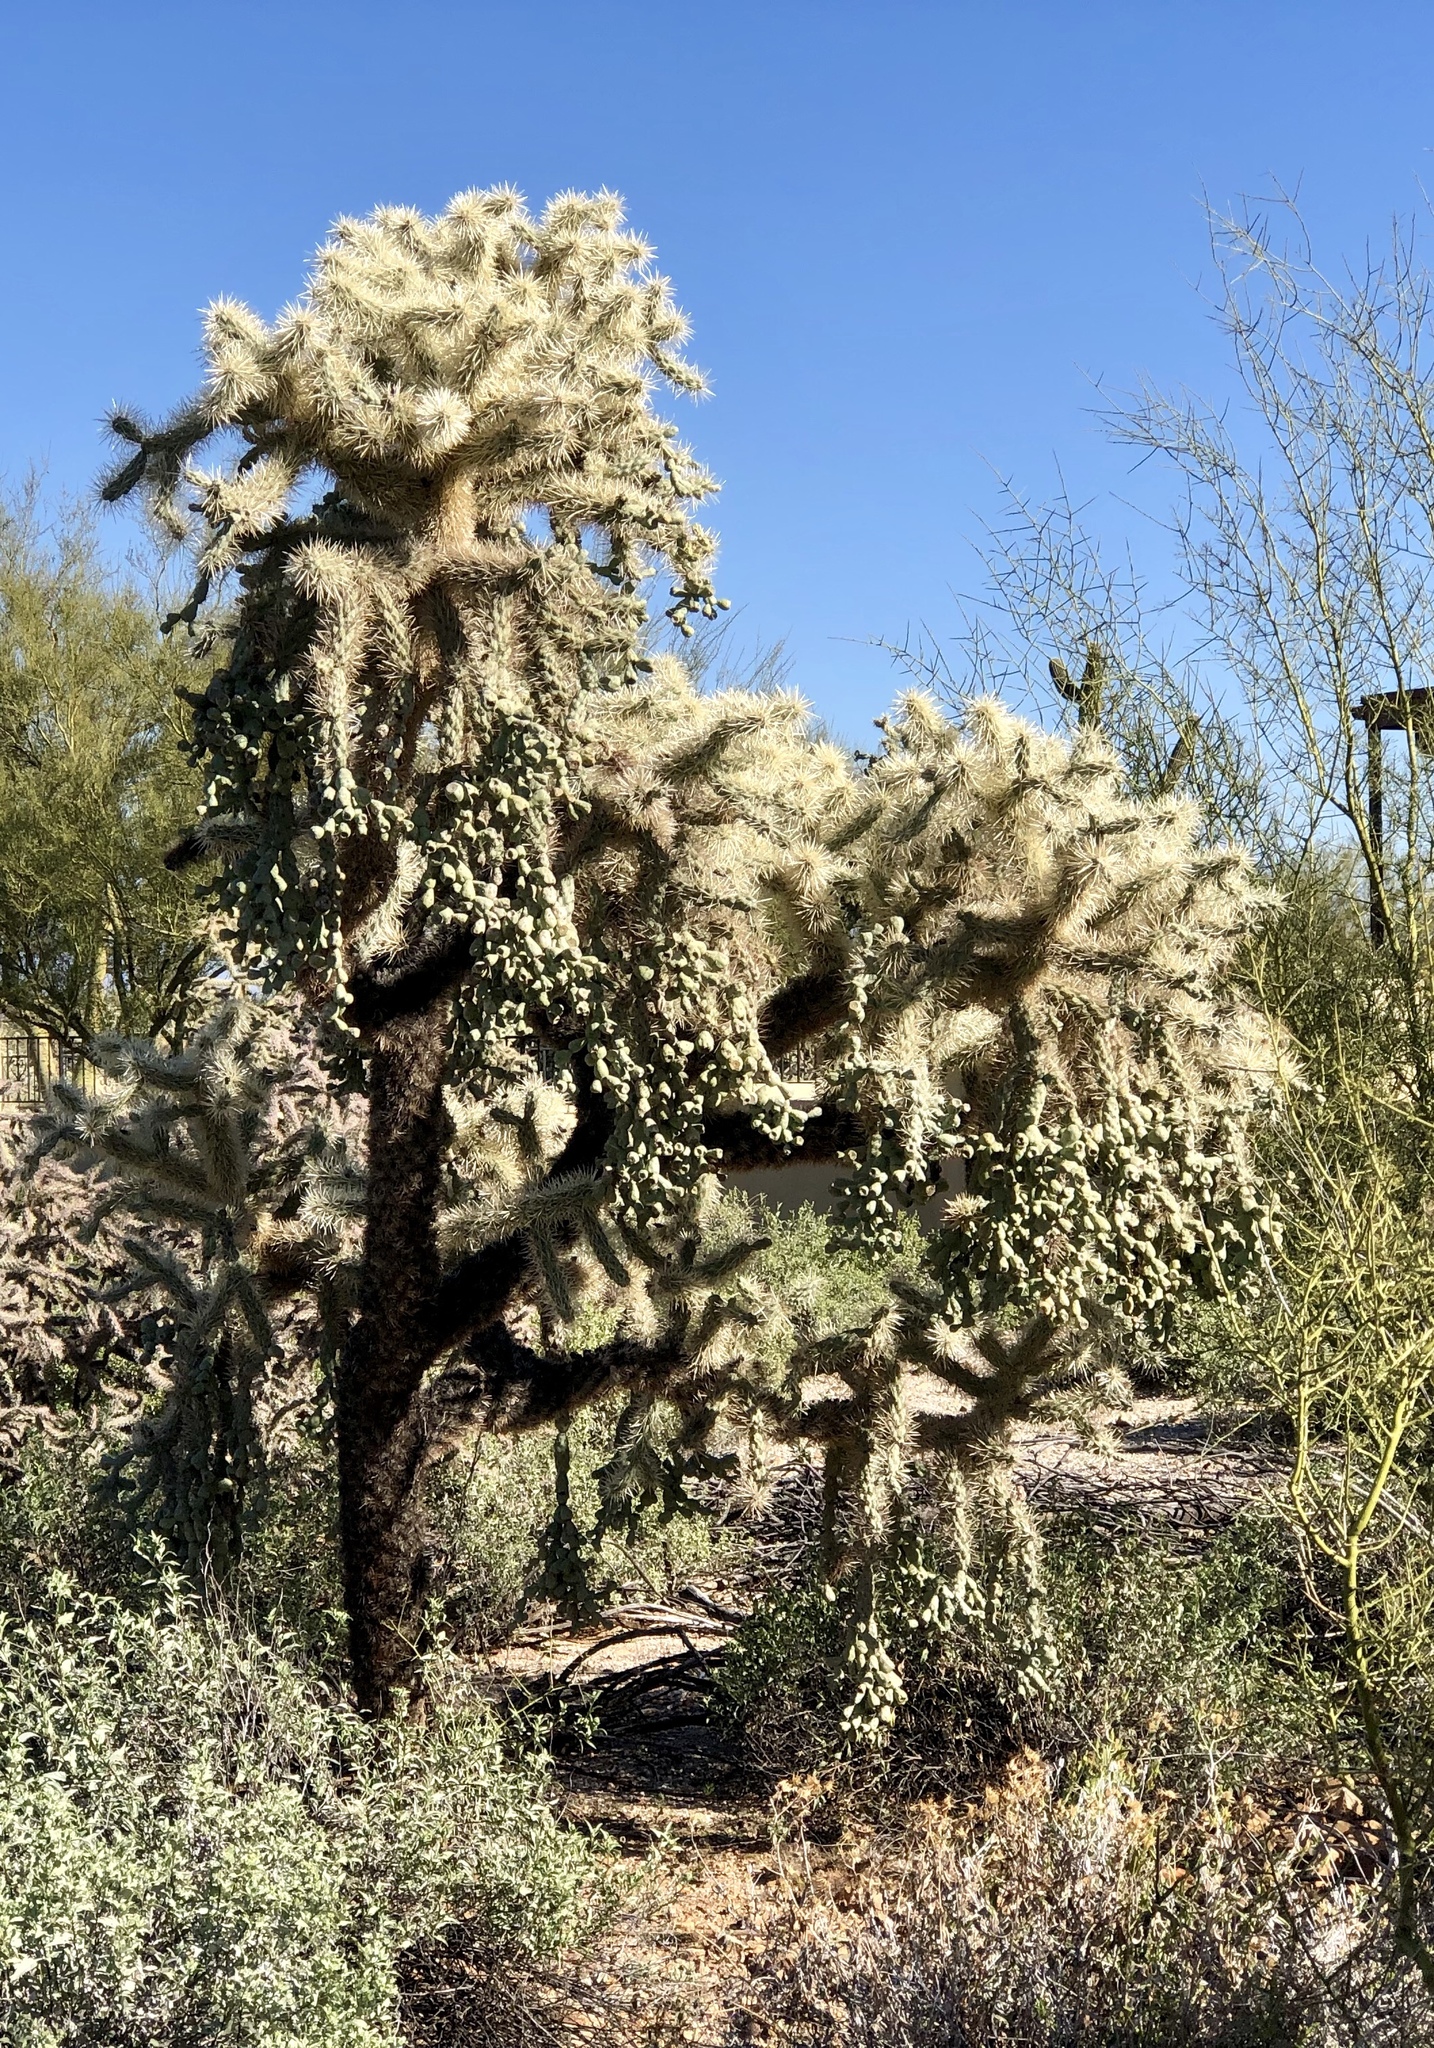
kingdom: Plantae
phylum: Tracheophyta
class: Magnoliopsida
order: Caryophyllales
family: Cactaceae
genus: Cylindropuntia
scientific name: Cylindropuntia fulgida
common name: Jumping cholla
